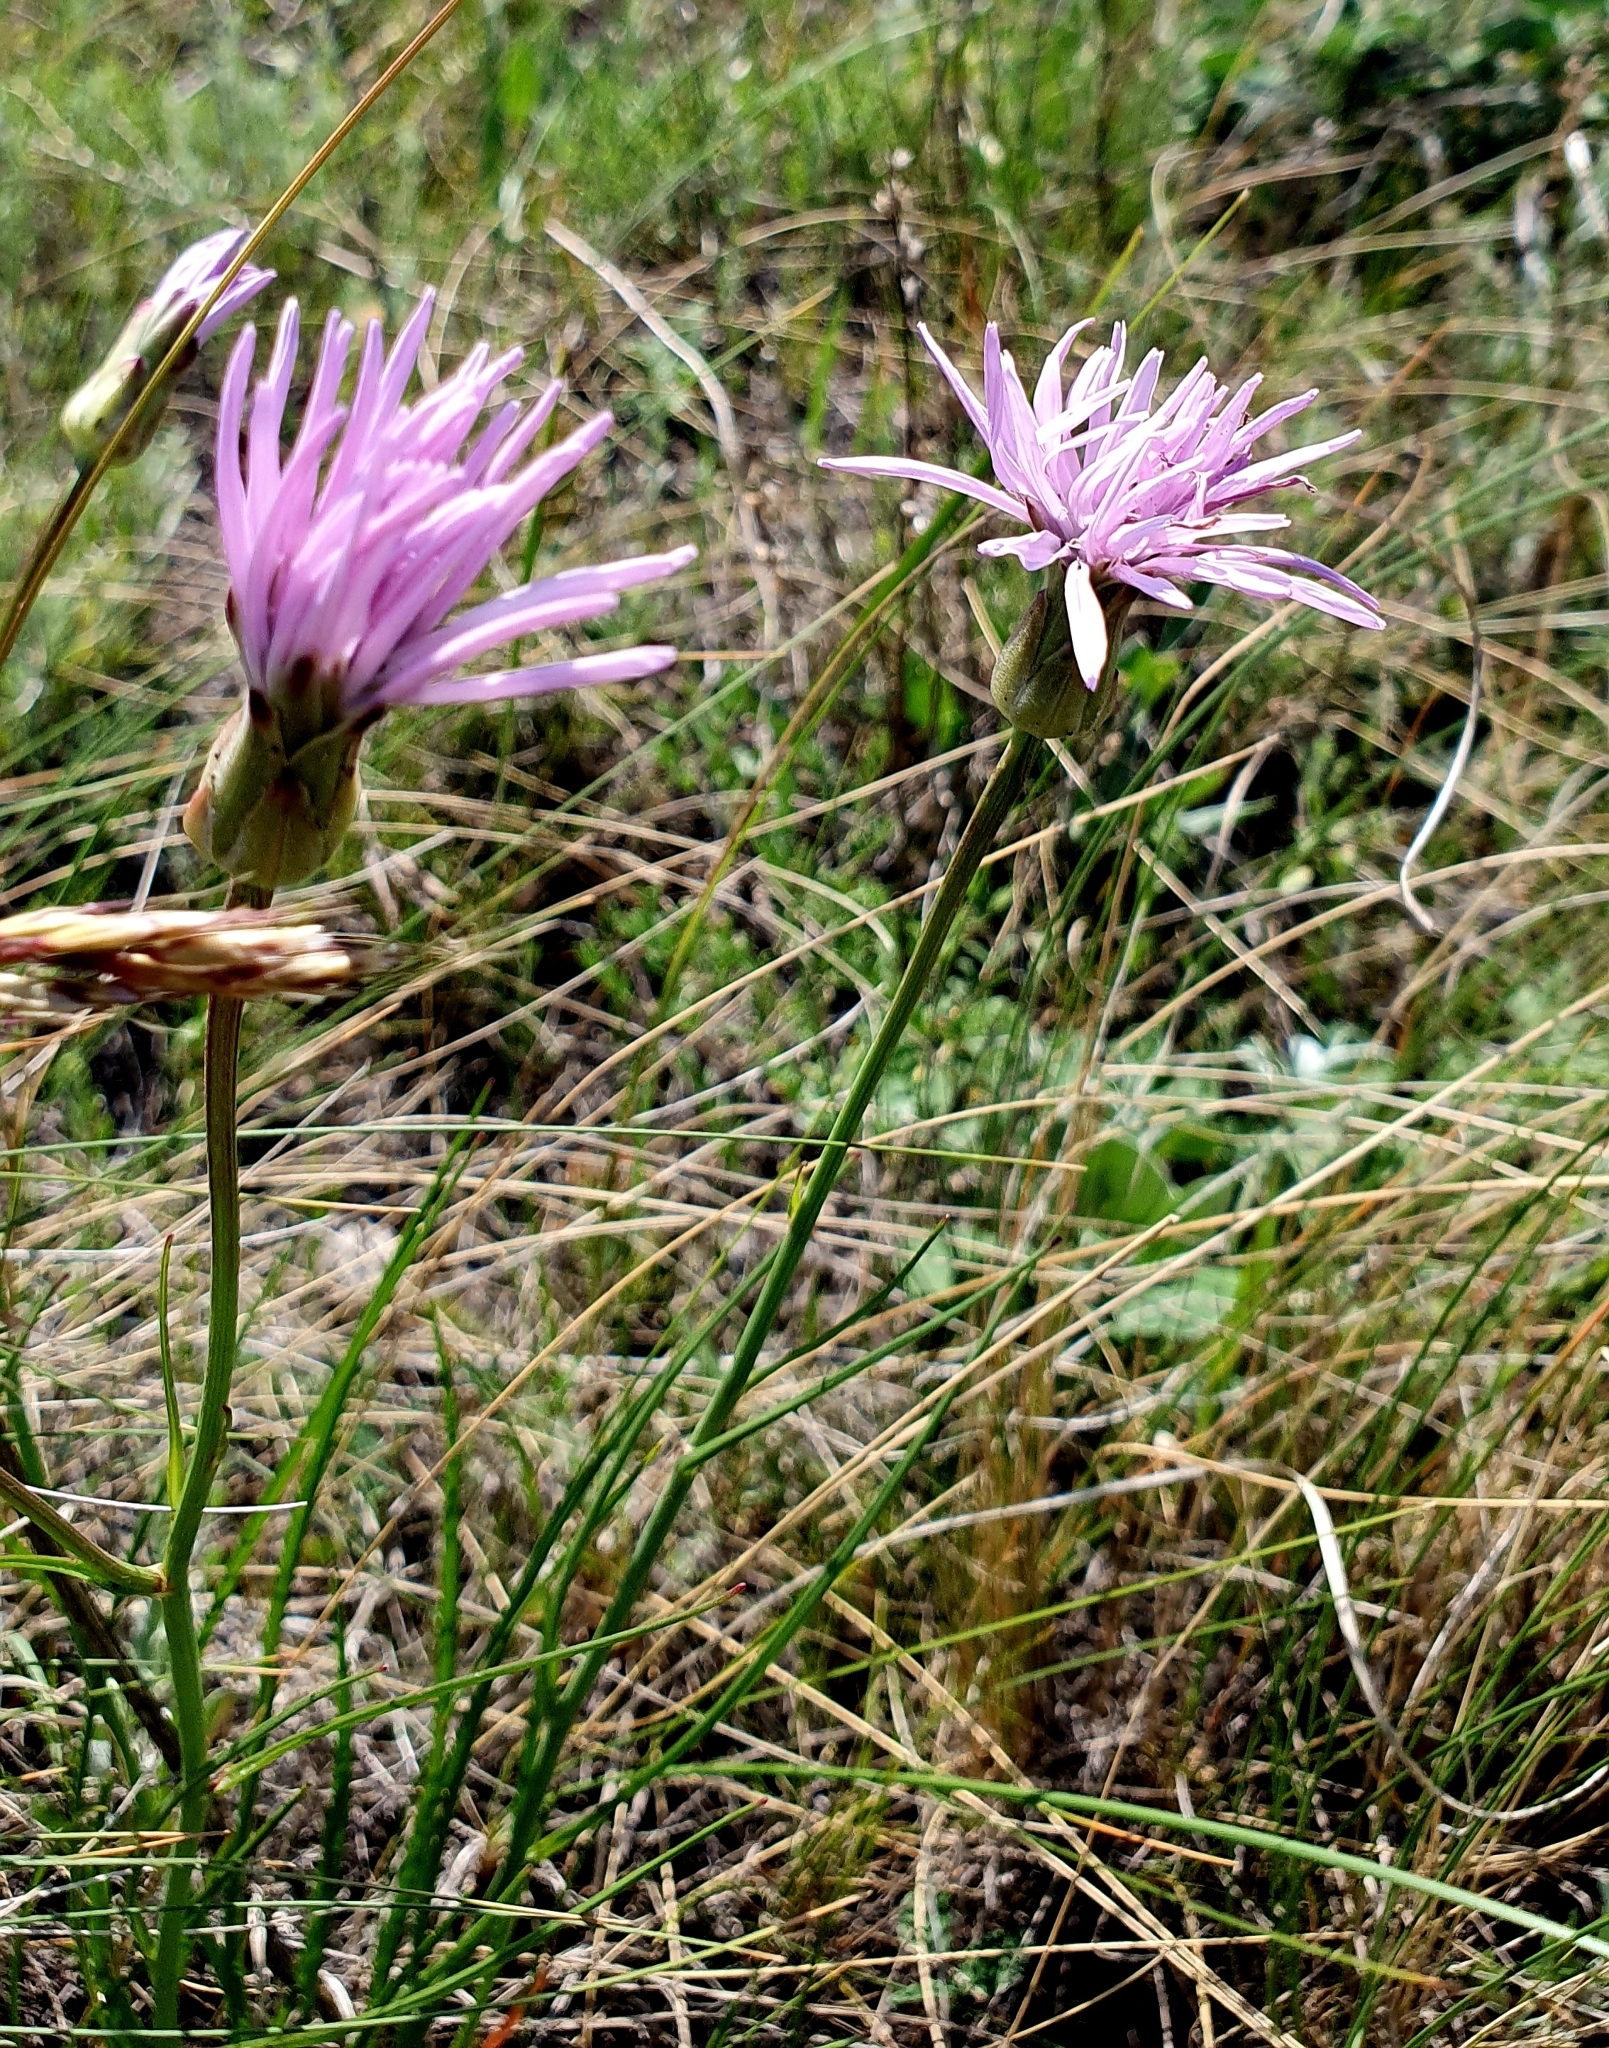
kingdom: Plantae
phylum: Tracheophyta
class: Magnoliopsida
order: Asterales
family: Asteraceae
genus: Scorzonera
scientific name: Scorzonera purpurea
